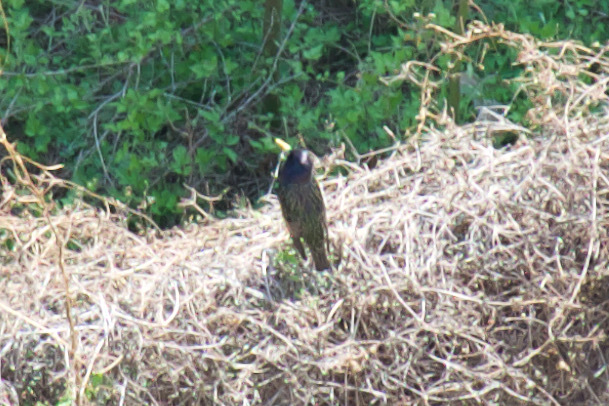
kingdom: Animalia
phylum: Chordata
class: Aves
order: Passeriformes
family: Sturnidae
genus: Sturnus
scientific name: Sturnus vulgaris
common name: Common starling
